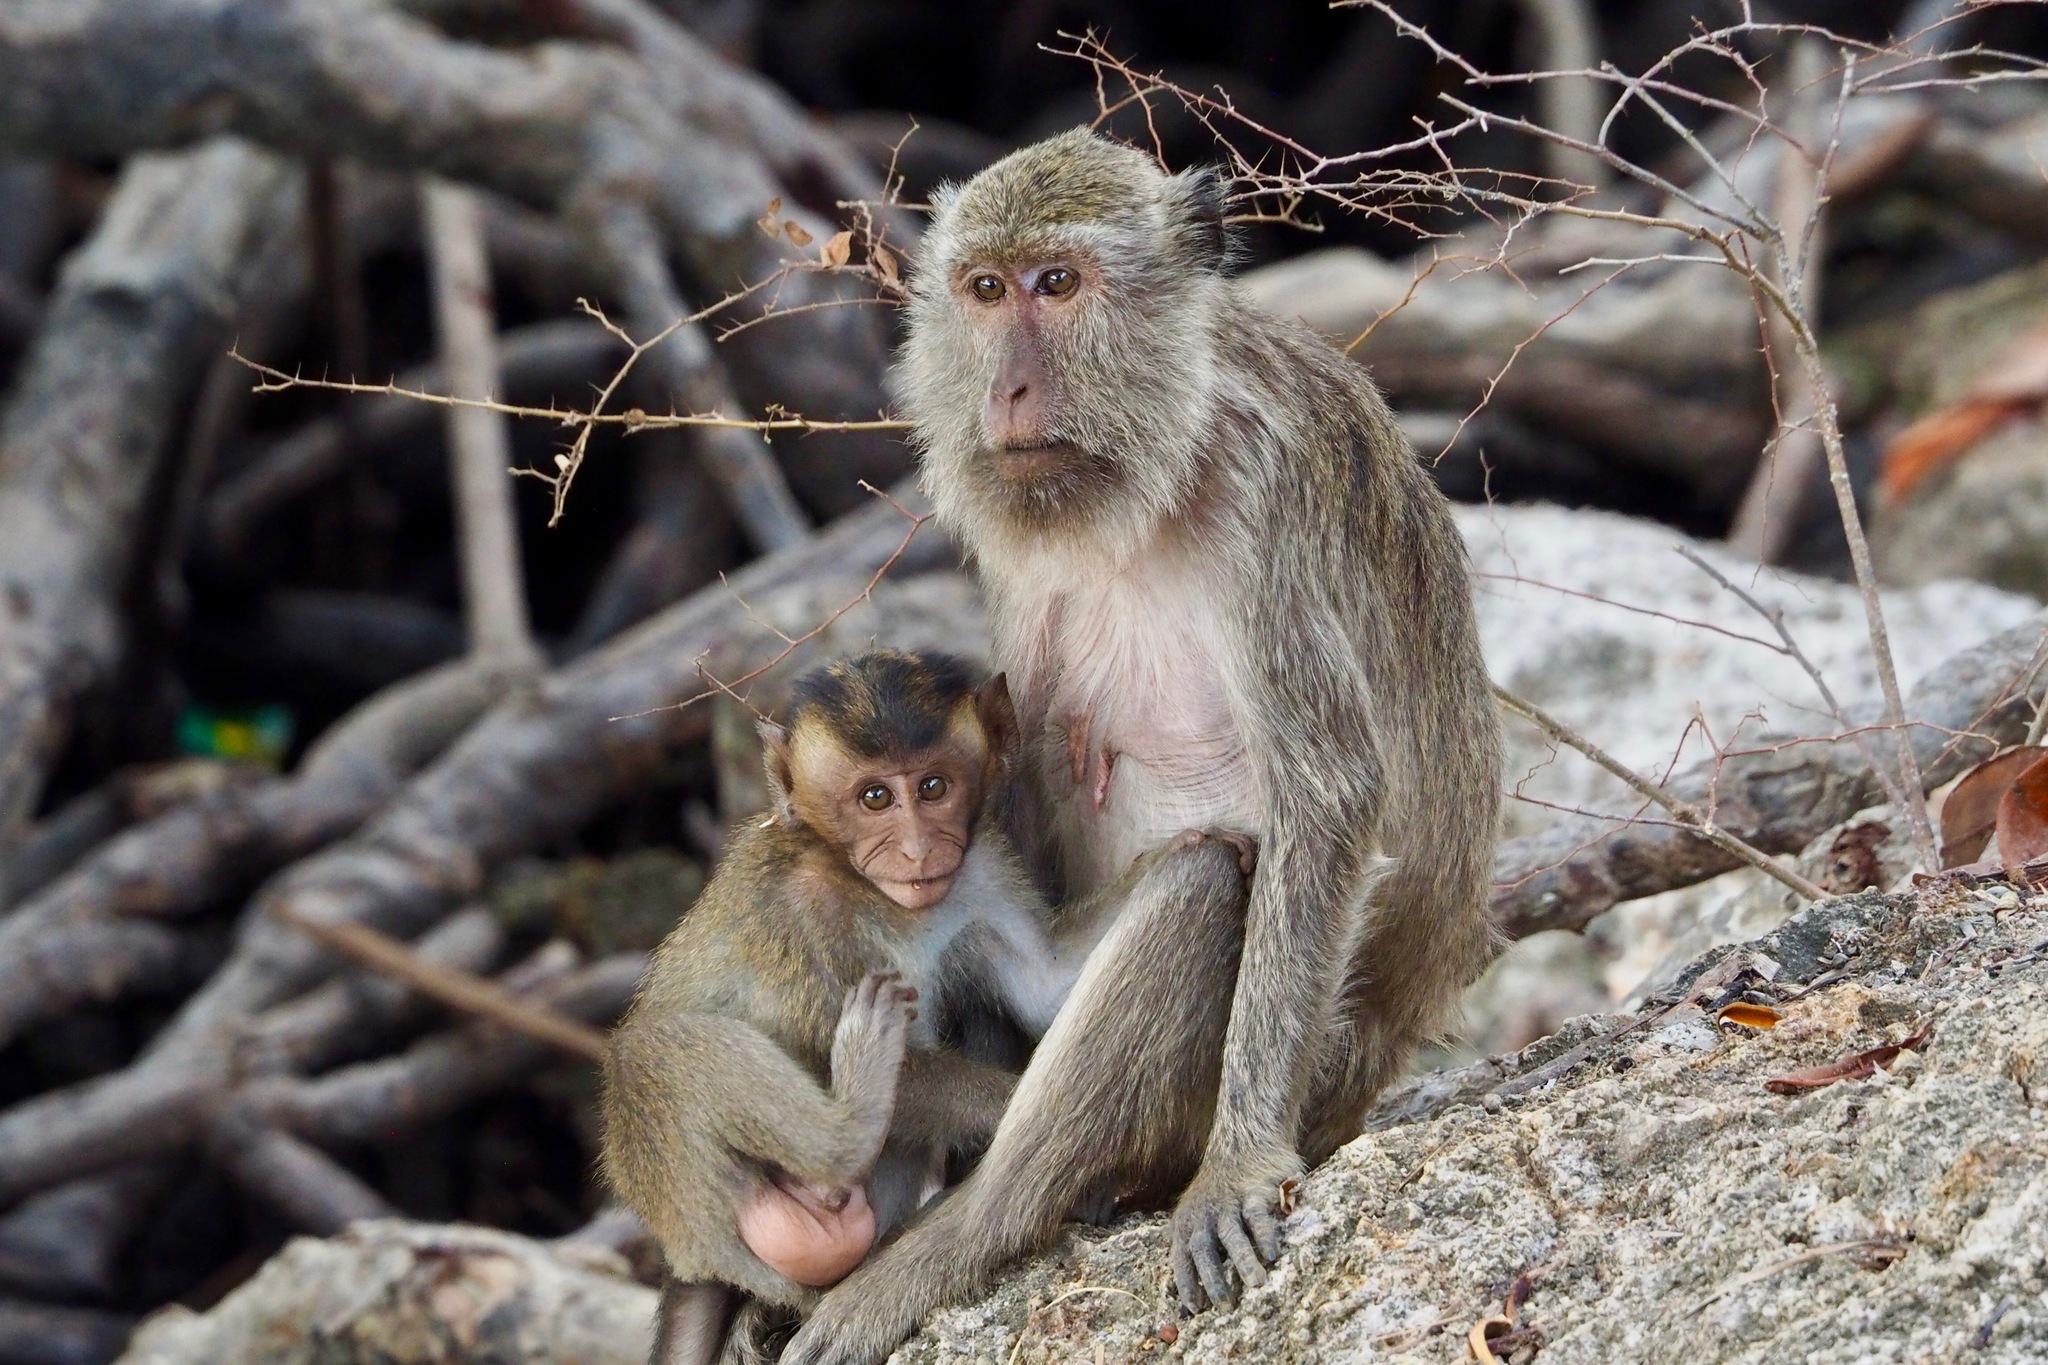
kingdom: Animalia
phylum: Chordata
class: Mammalia
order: Primates
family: Cercopithecidae
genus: Macaca
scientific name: Macaca fascicularis
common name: Crab-eating macaque
